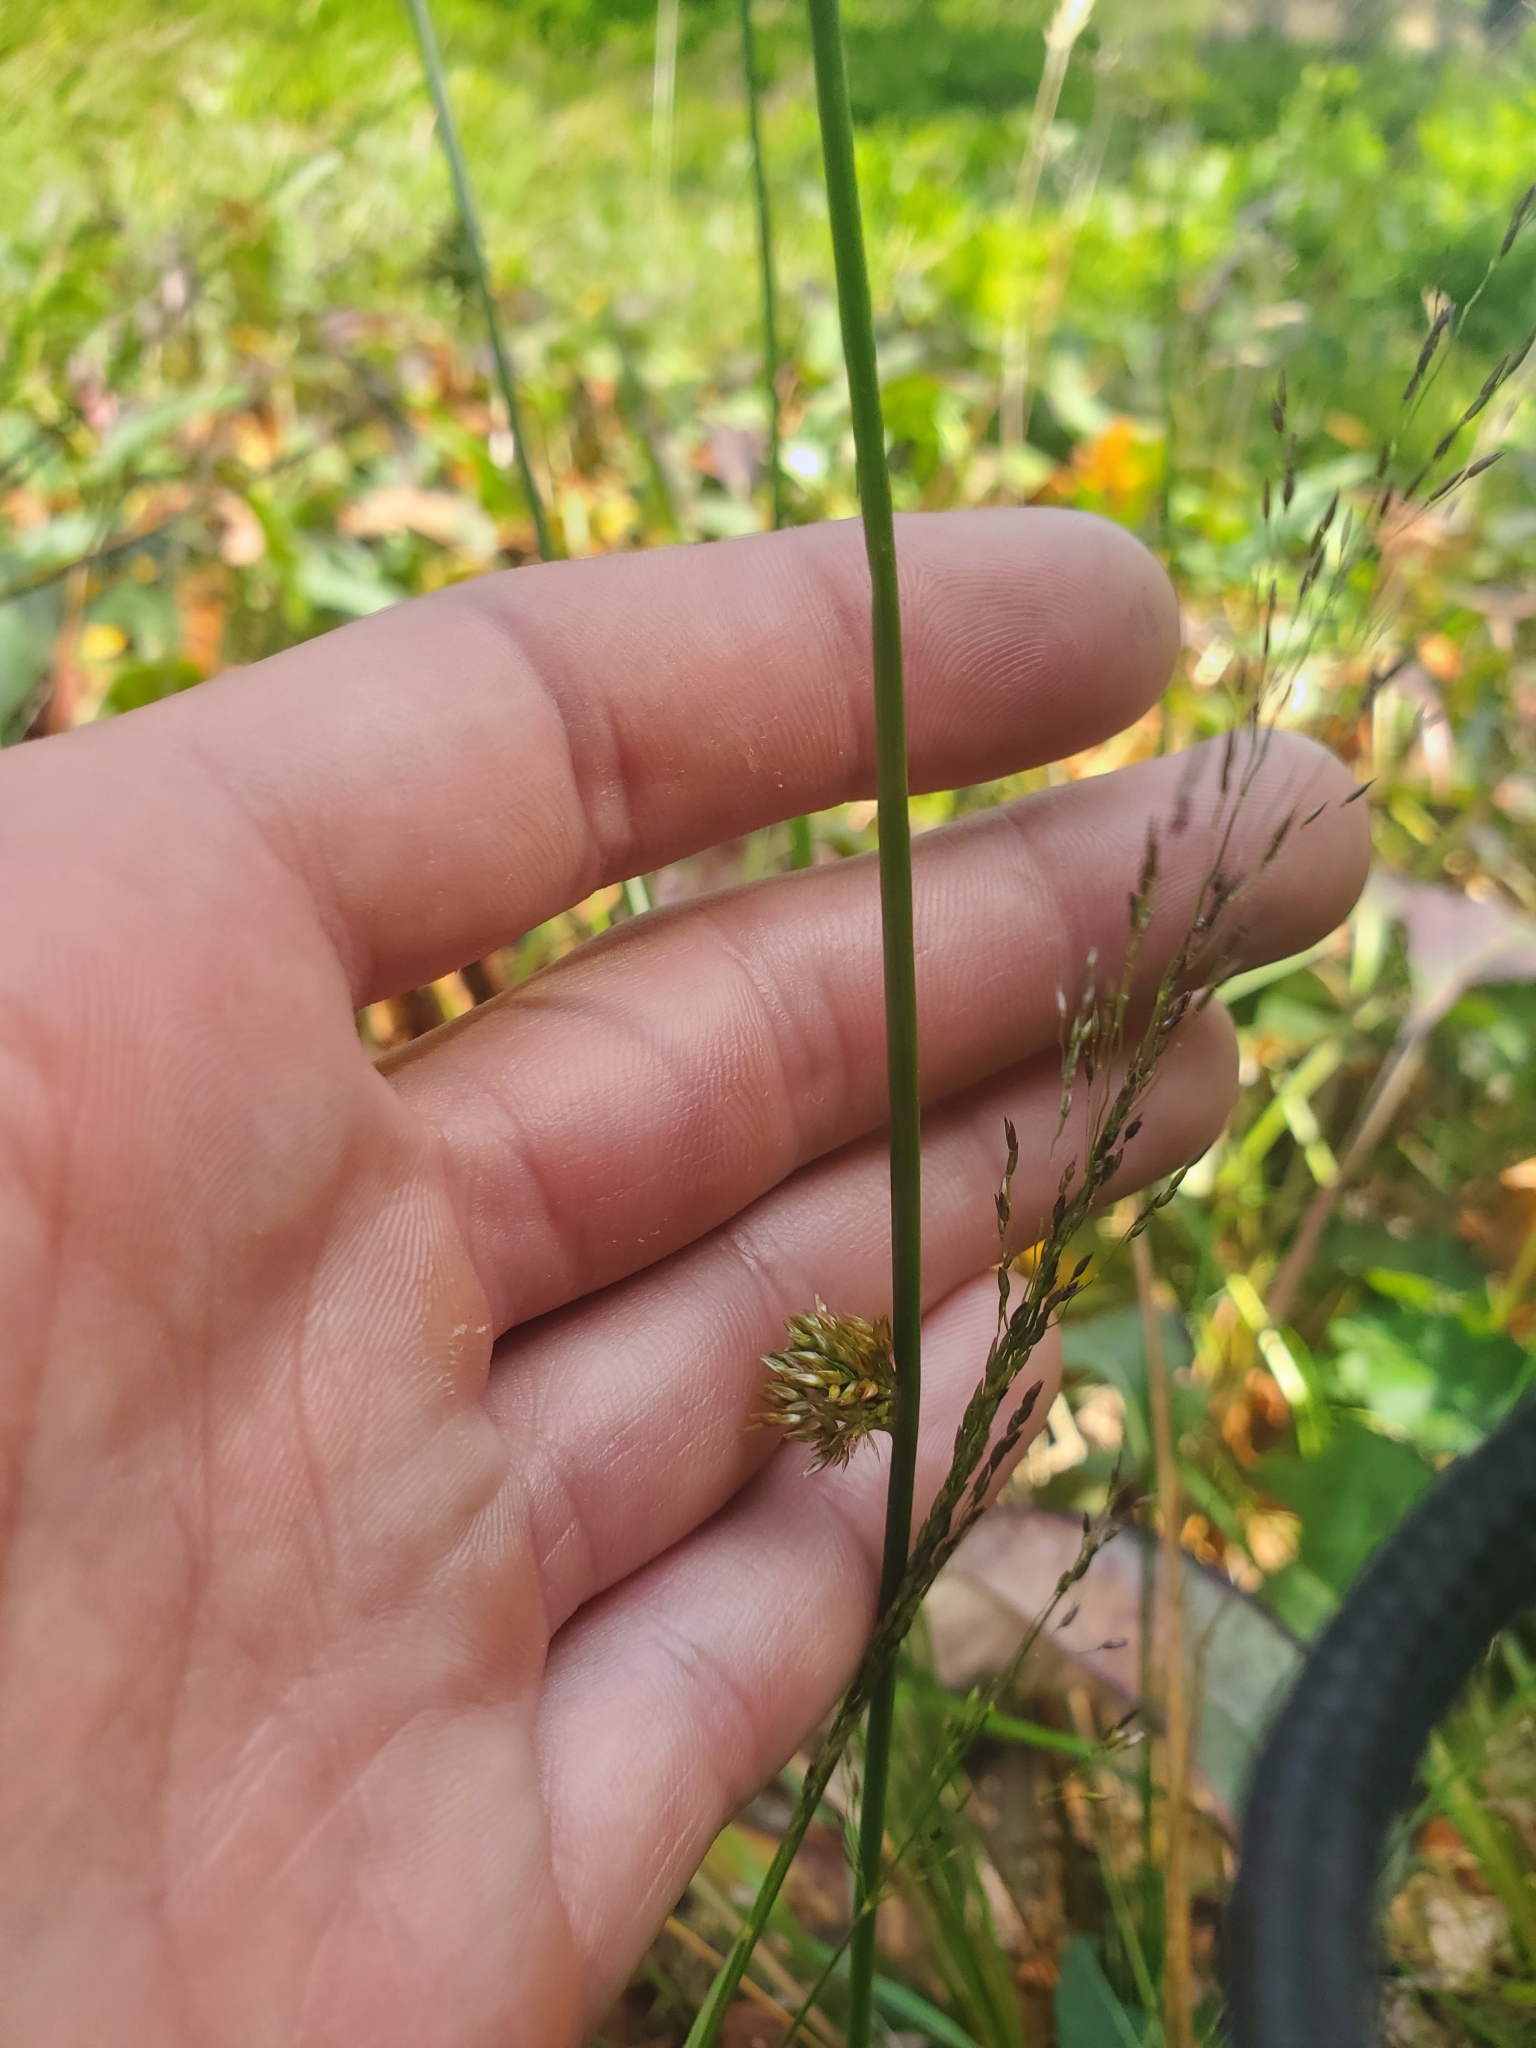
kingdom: Plantae
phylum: Tracheophyta
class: Liliopsida
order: Poales
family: Juncaceae
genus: Juncus
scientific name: Juncus effusus
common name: Soft rush
